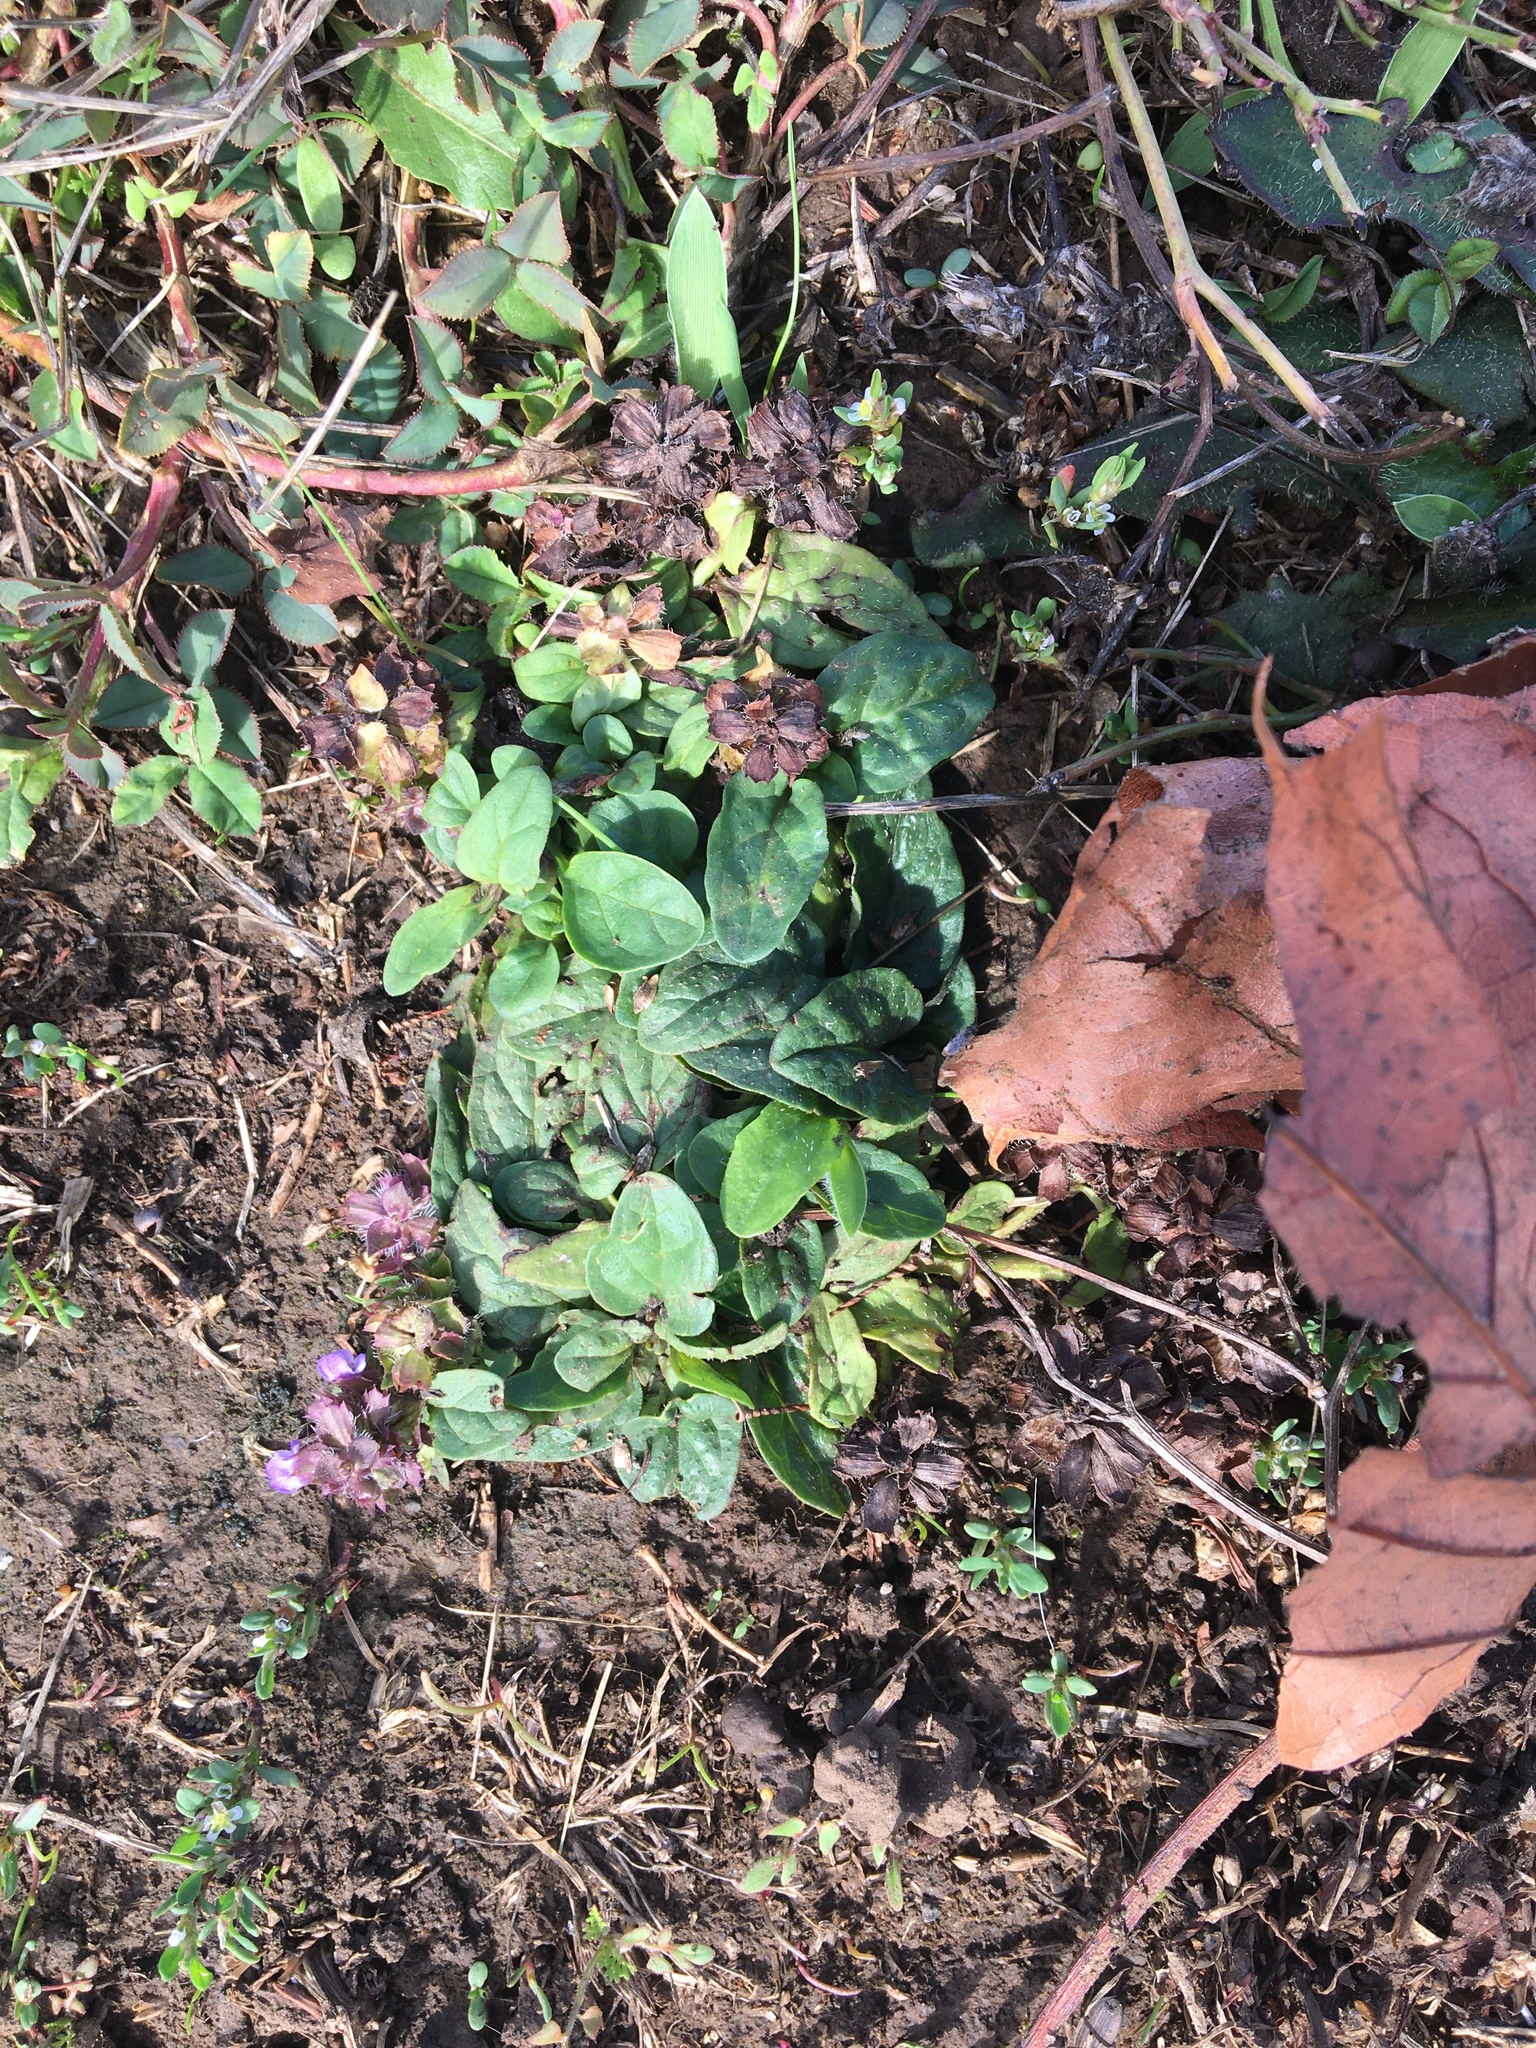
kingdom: Plantae
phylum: Tracheophyta
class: Magnoliopsida
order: Lamiales
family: Lamiaceae
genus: Prunella
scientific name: Prunella vulgaris
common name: Heal-all
